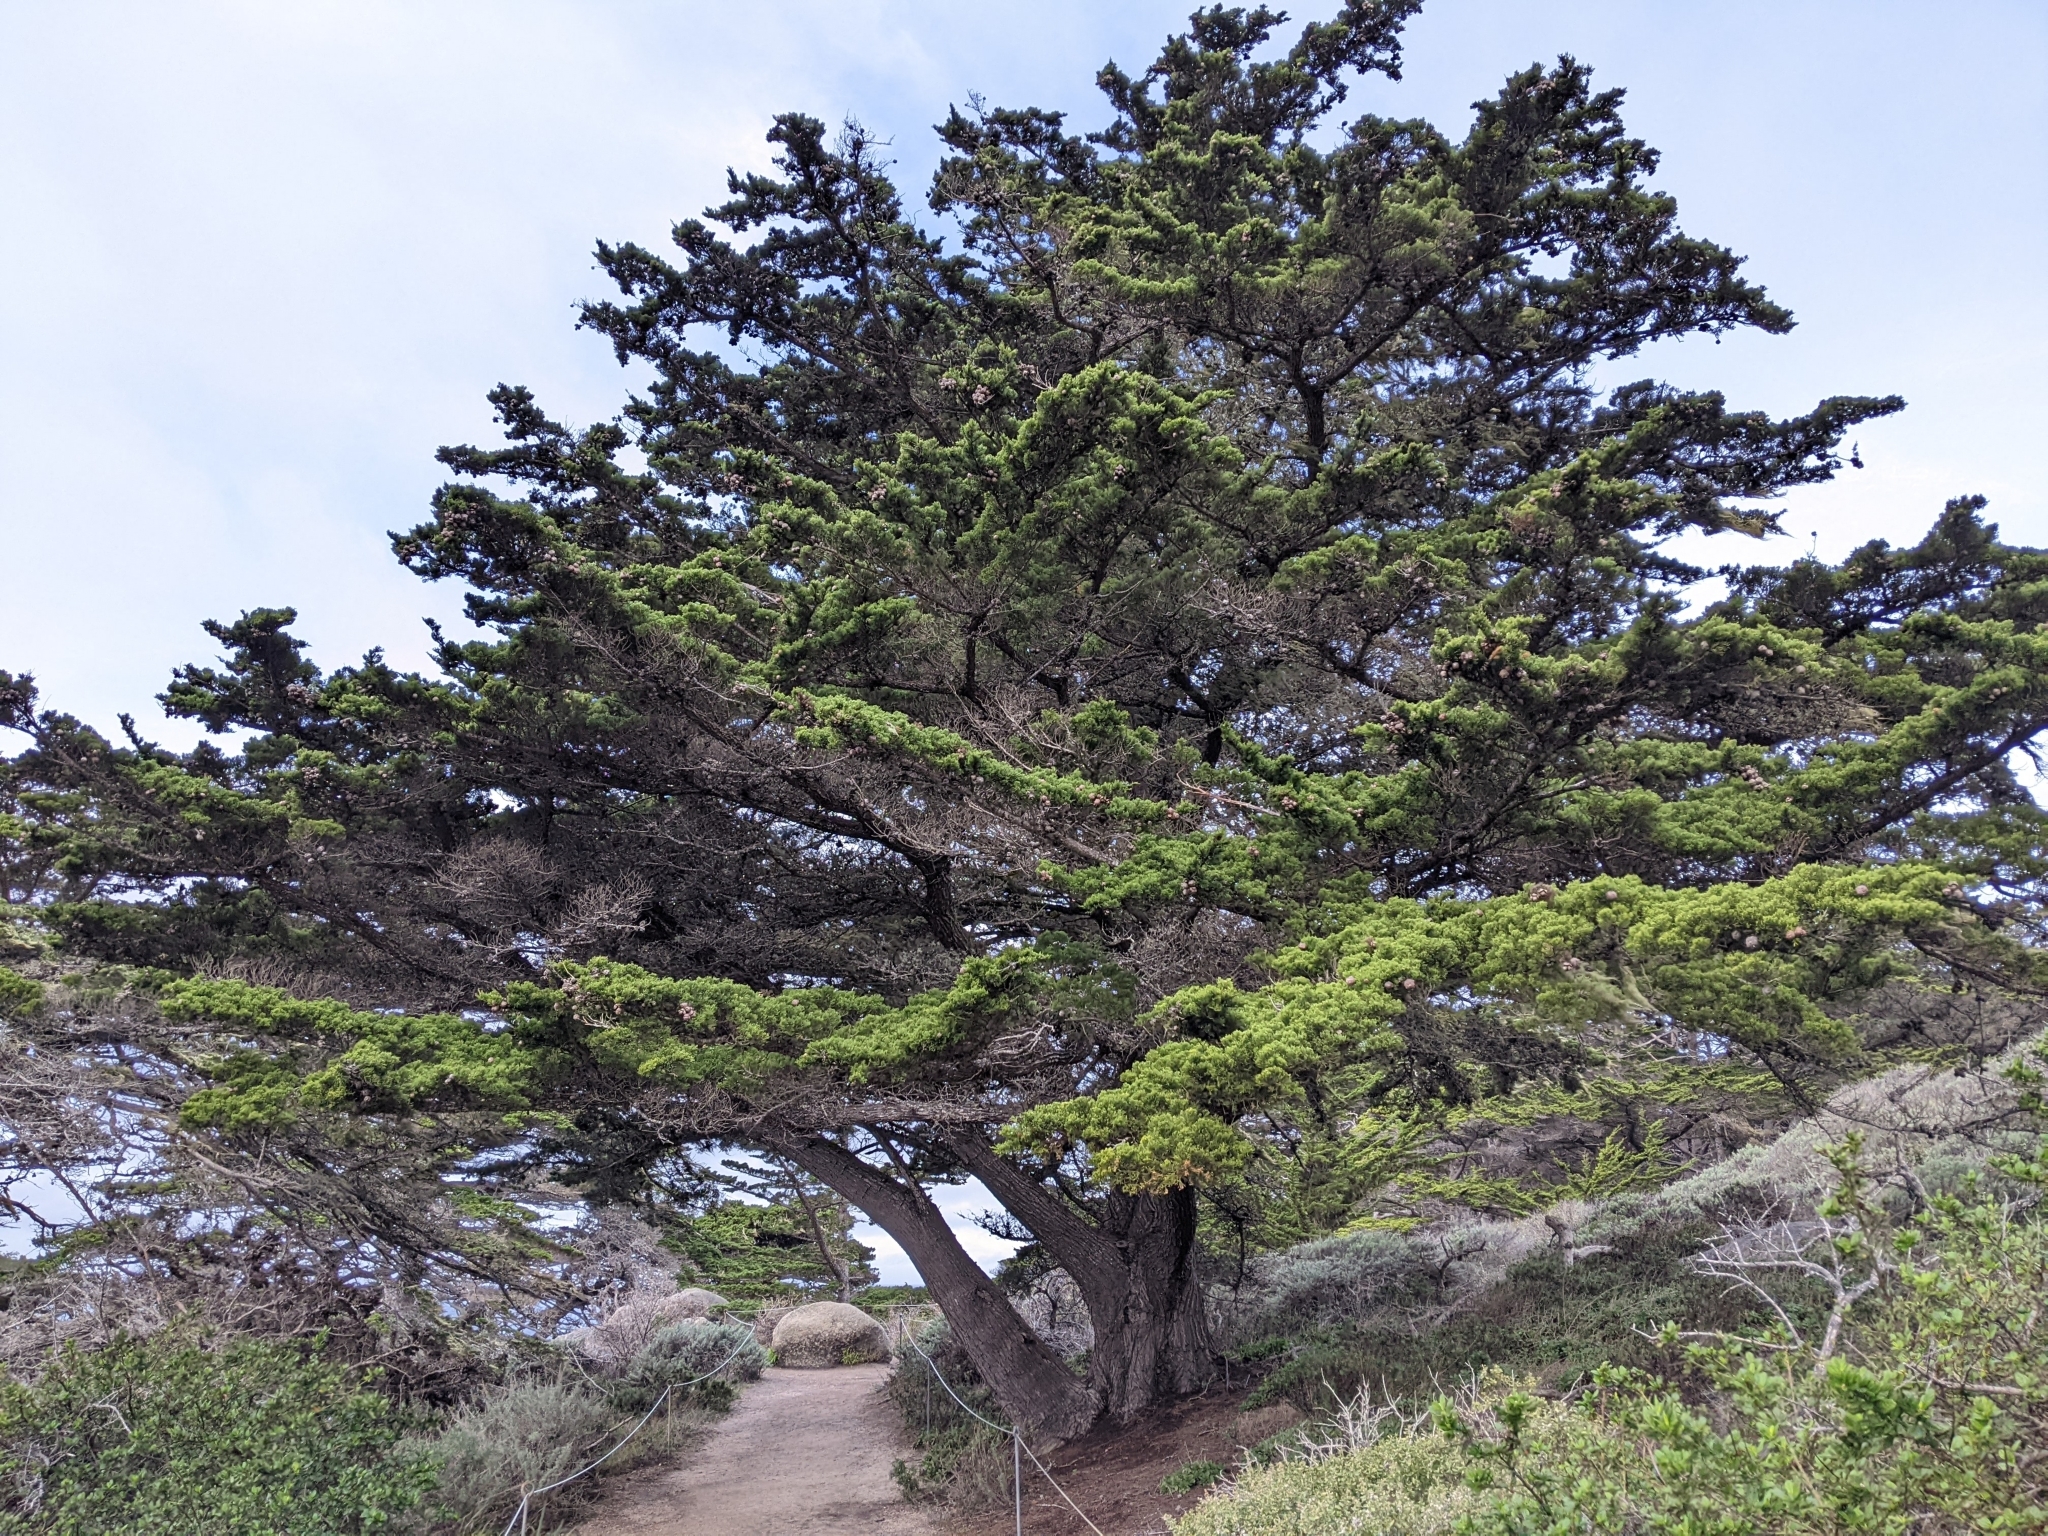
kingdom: Plantae
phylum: Tracheophyta
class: Pinopsida
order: Pinales
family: Cupressaceae
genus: Cupressus
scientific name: Cupressus macrocarpa
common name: Monterey cypress
